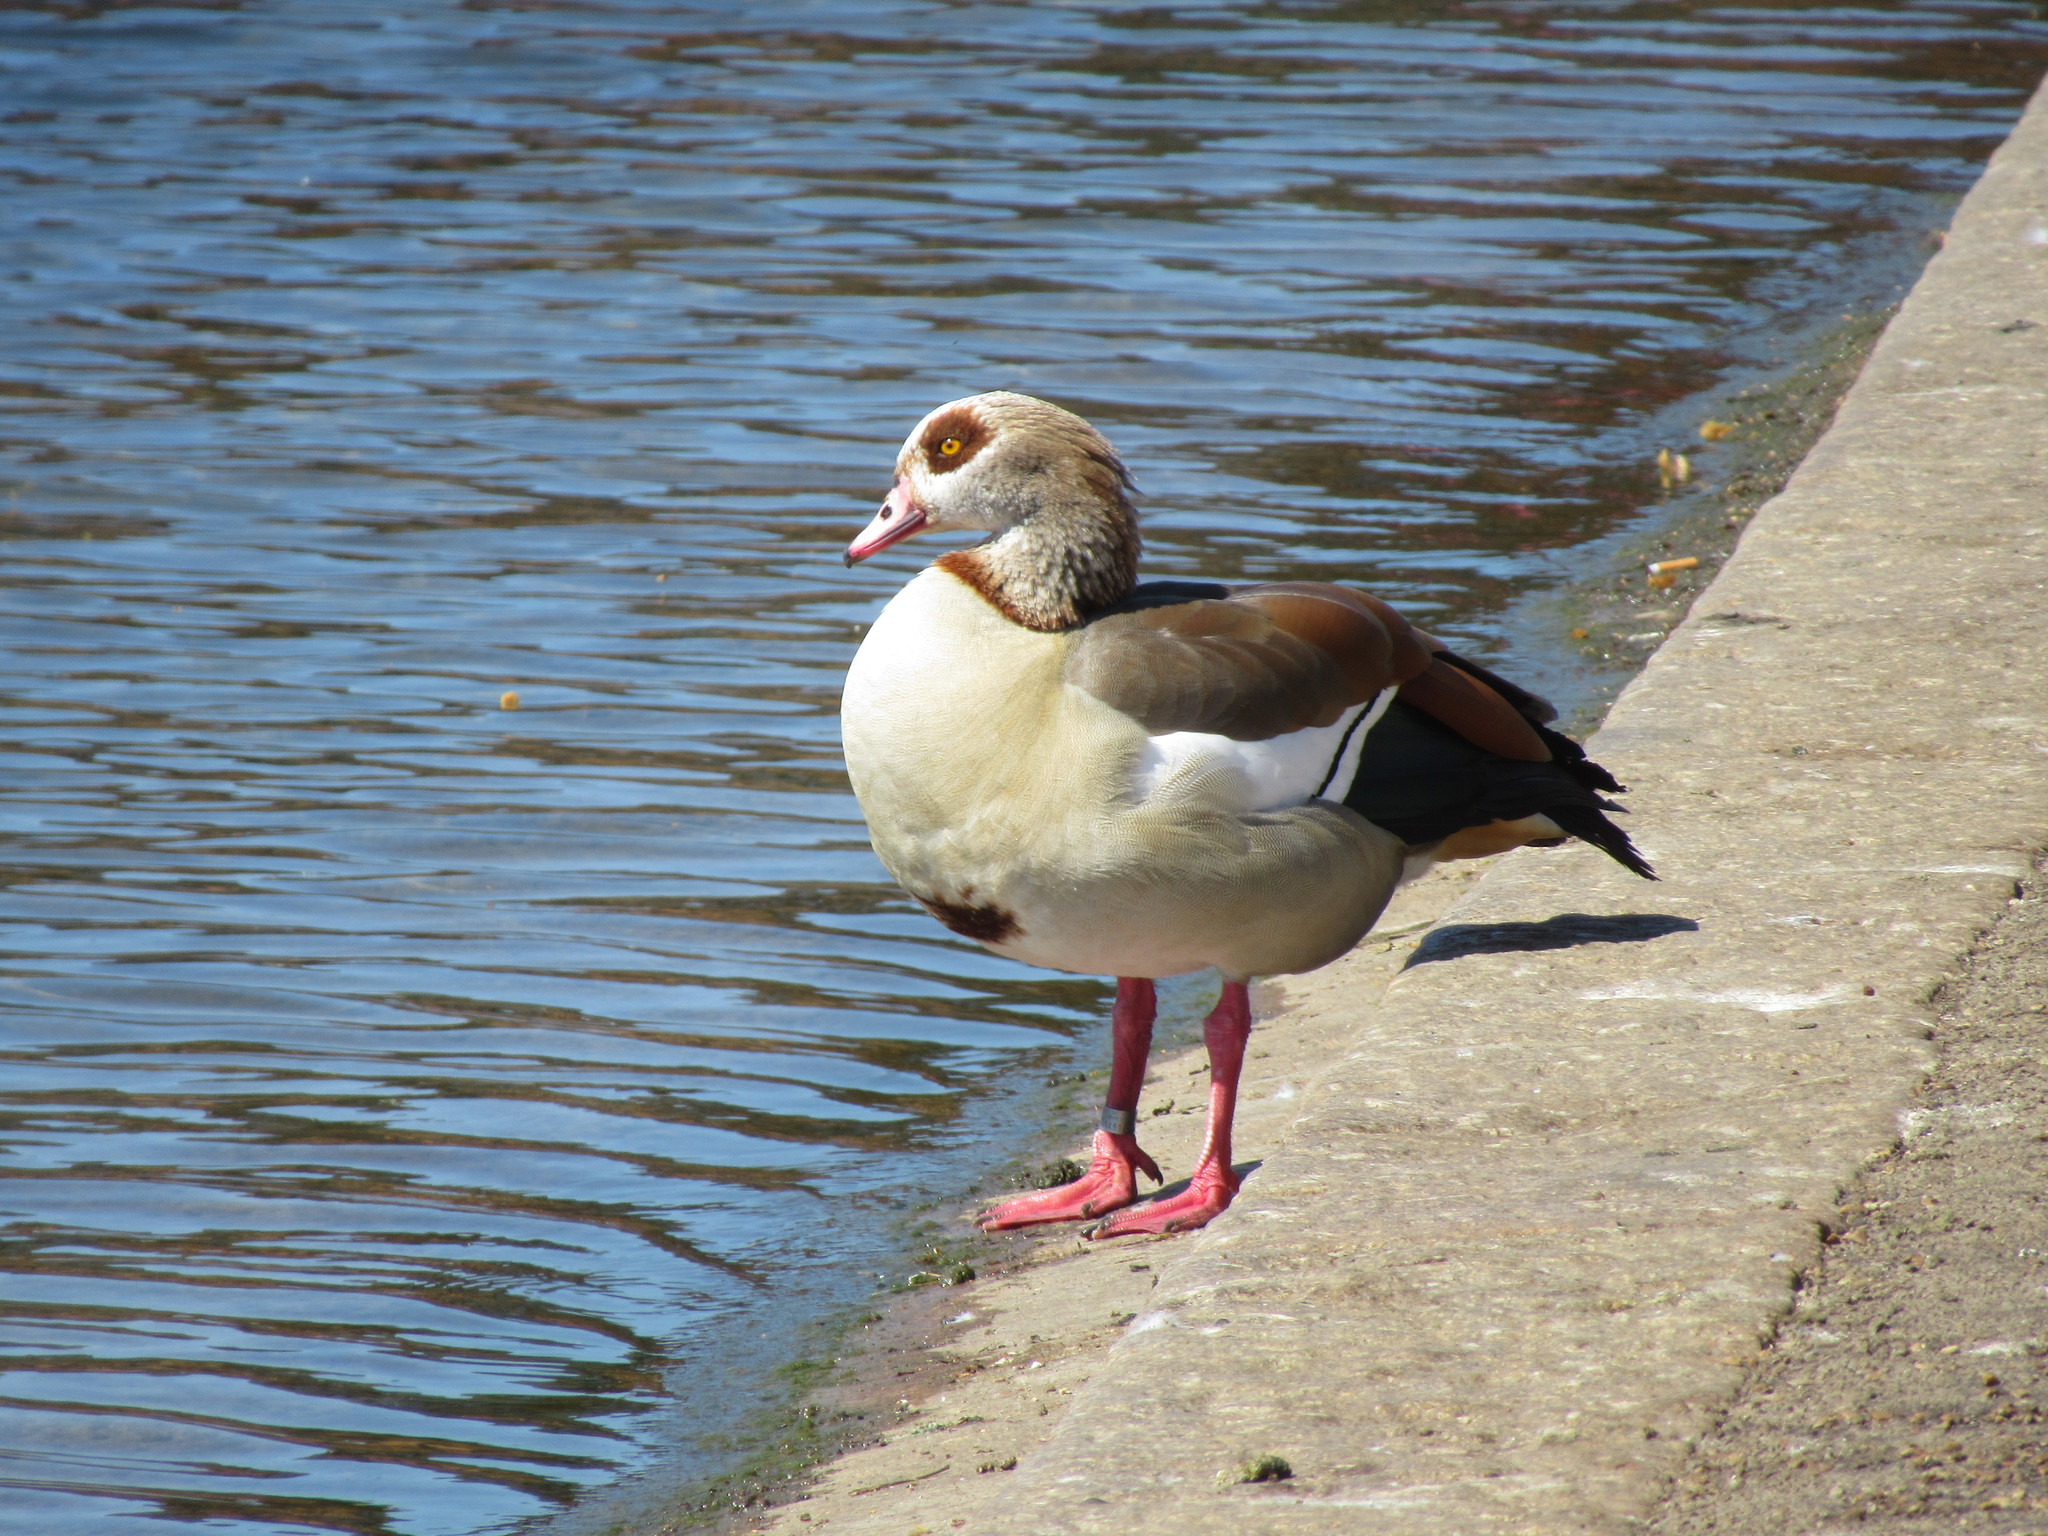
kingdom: Animalia
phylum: Chordata
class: Aves
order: Anseriformes
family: Anatidae
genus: Alopochen
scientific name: Alopochen aegyptiaca
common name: Egyptian goose
